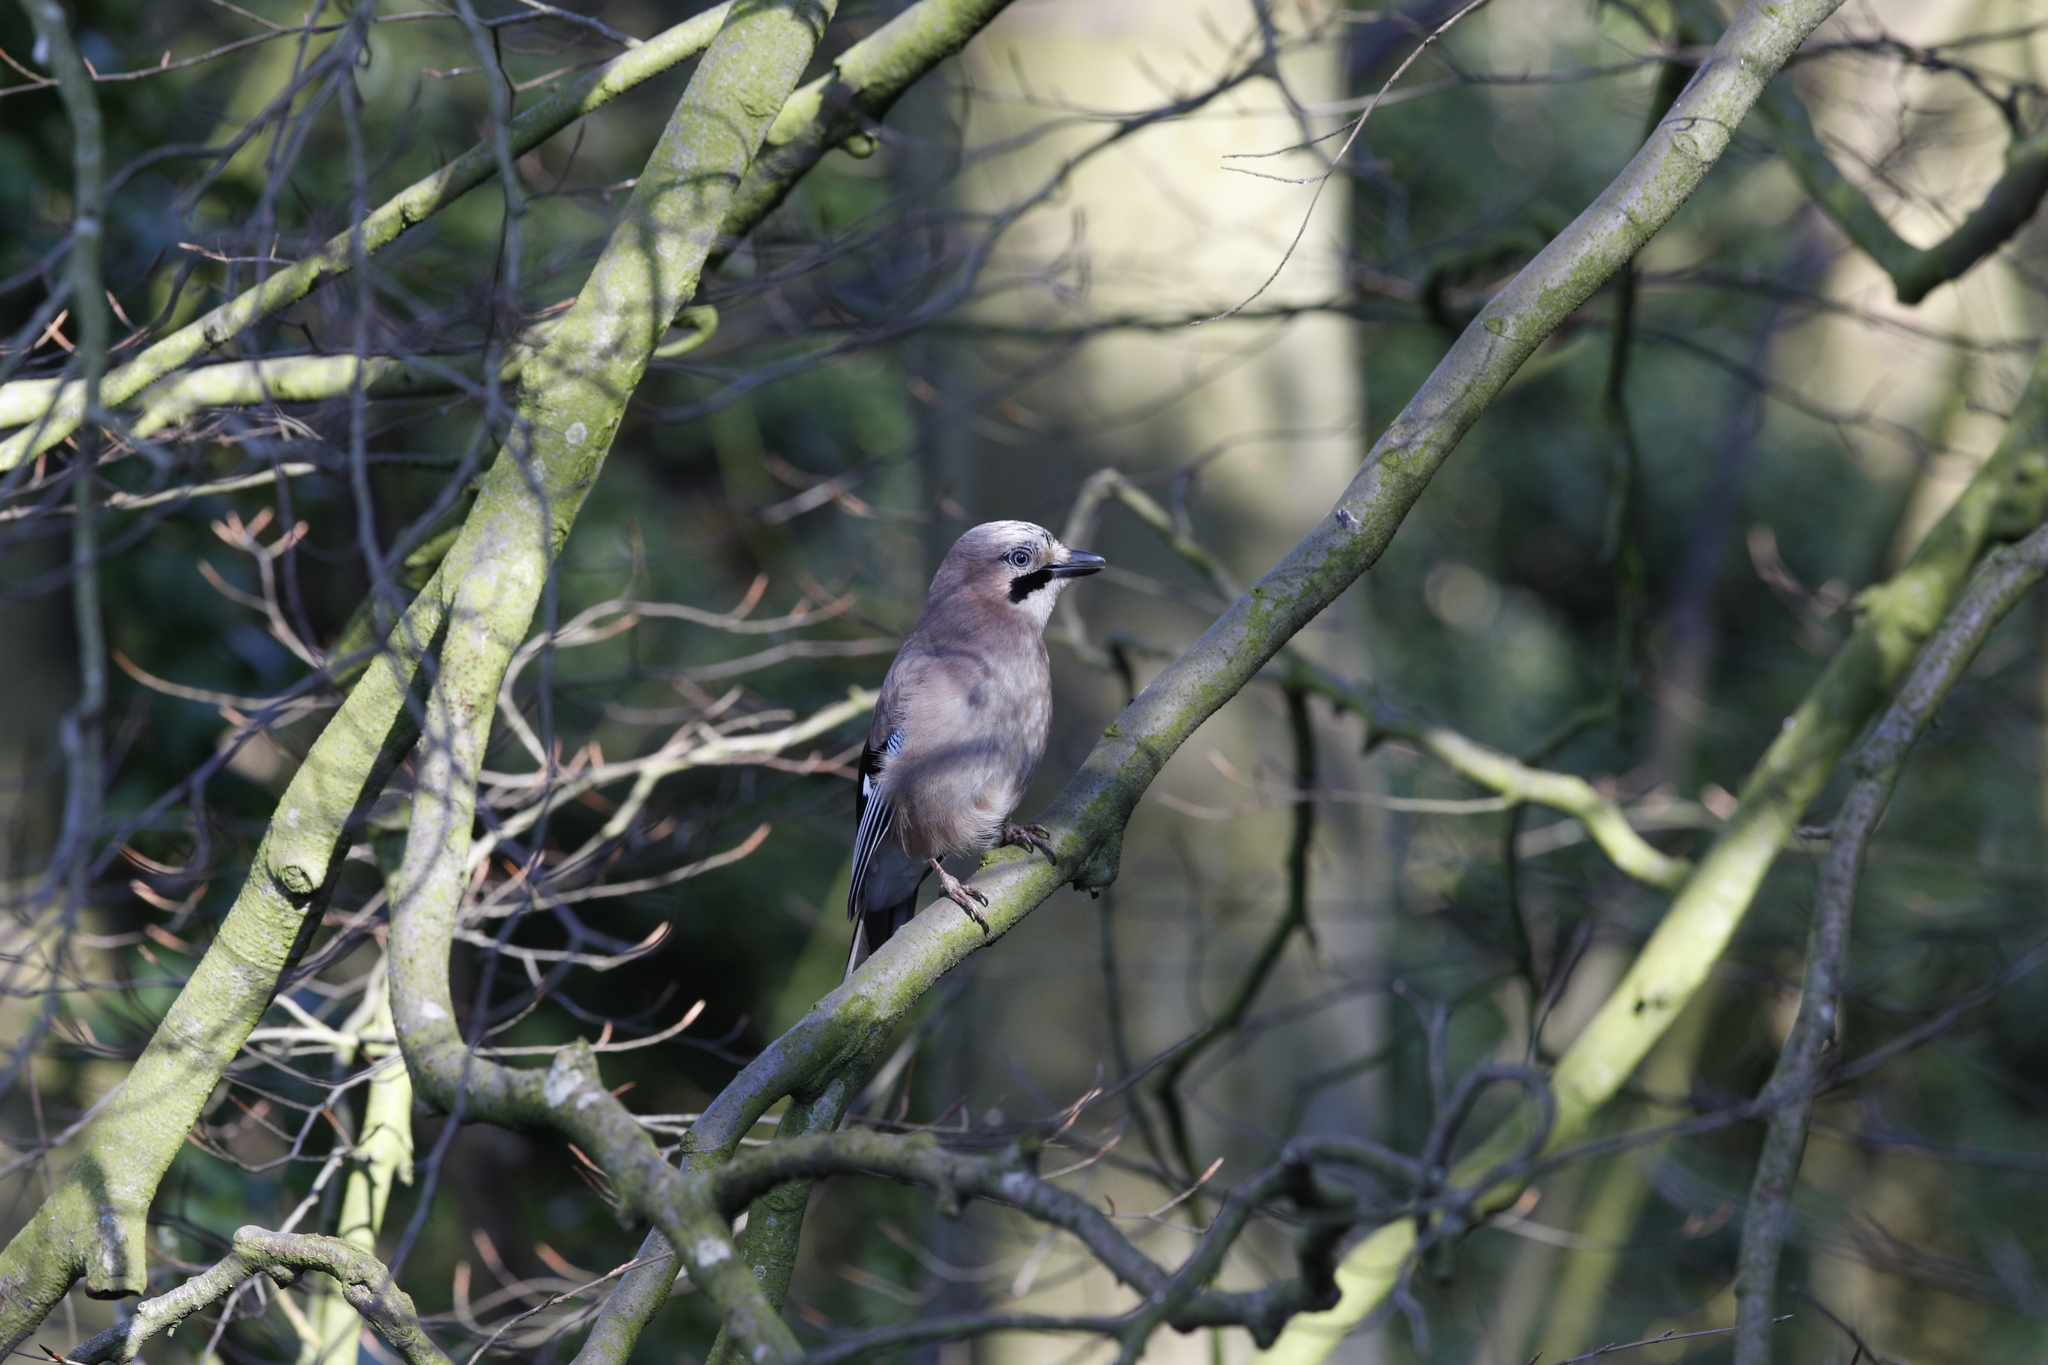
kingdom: Animalia
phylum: Chordata
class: Aves
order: Passeriformes
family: Corvidae
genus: Garrulus
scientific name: Garrulus glandarius
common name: Eurasian jay
